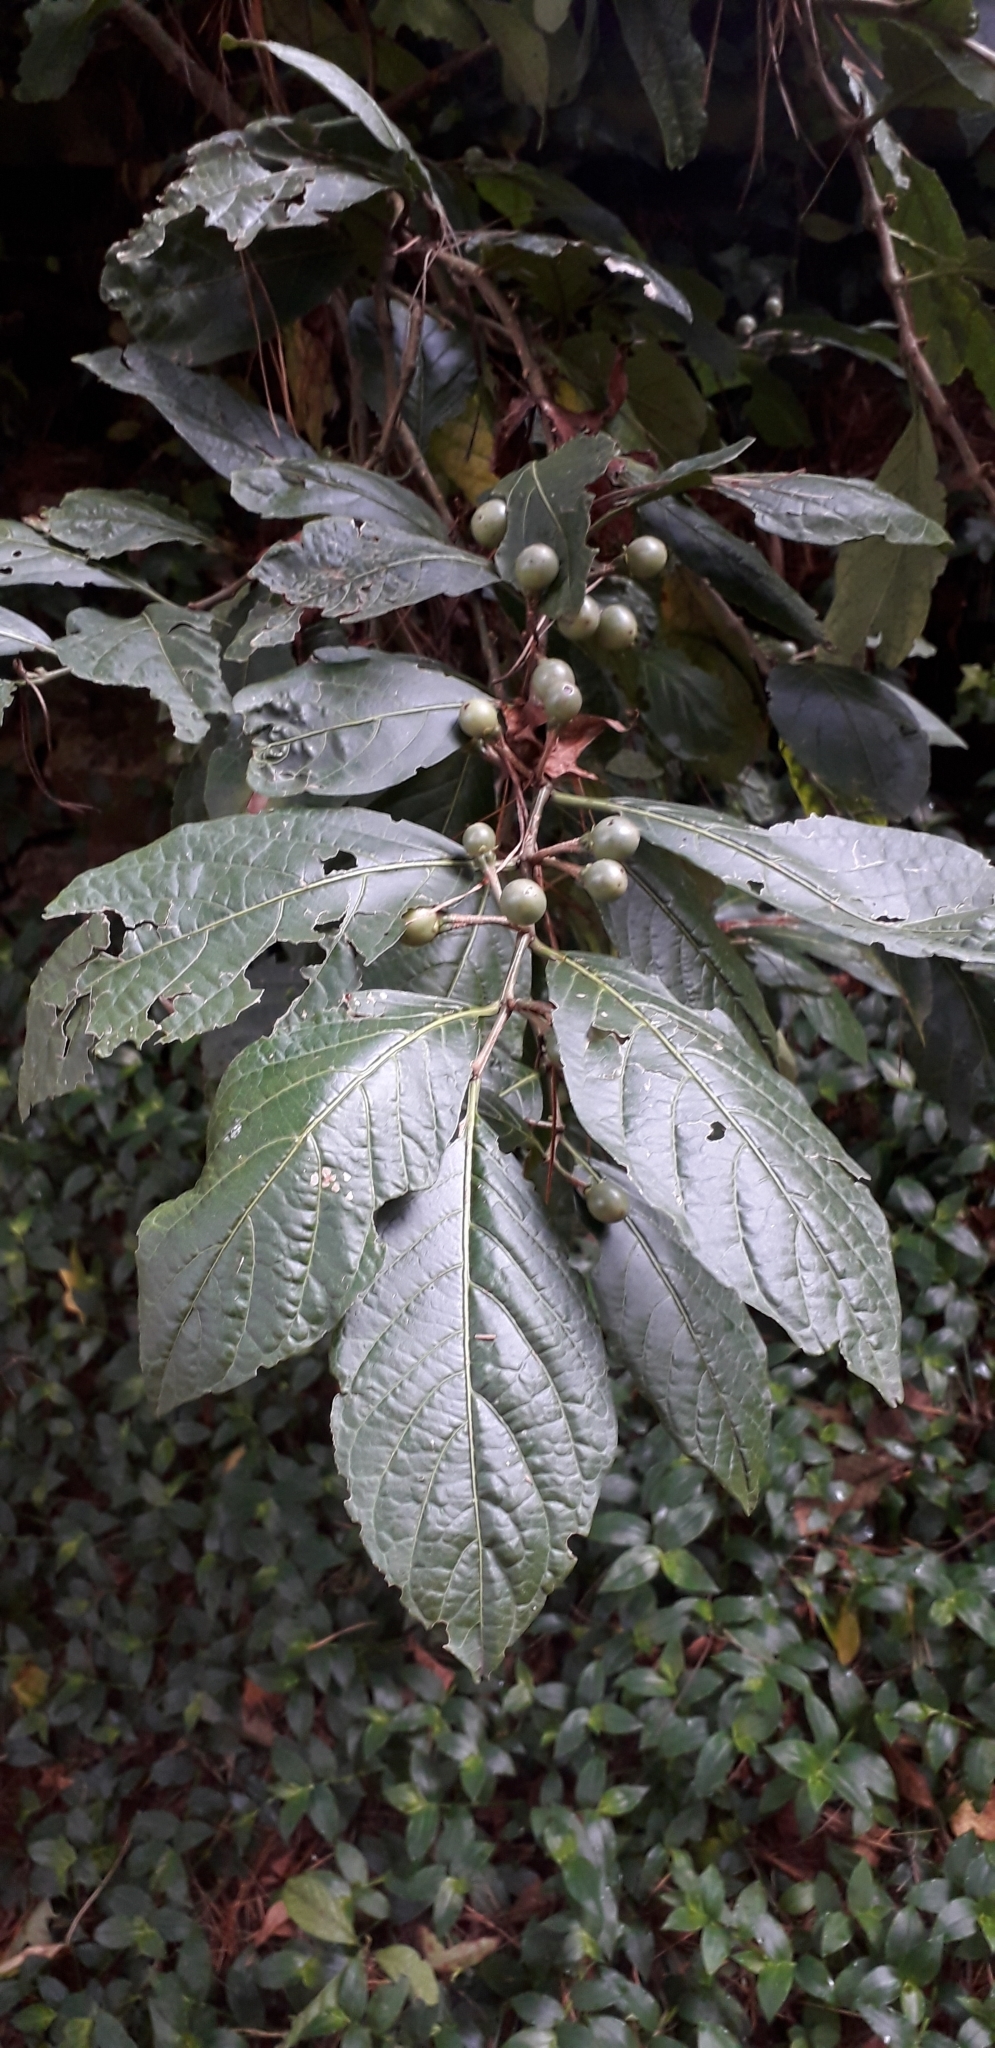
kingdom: Plantae
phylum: Tracheophyta
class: Magnoliopsida
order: Solanales
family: Solanaceae
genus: Solanum
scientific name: Solanum cornifolium
